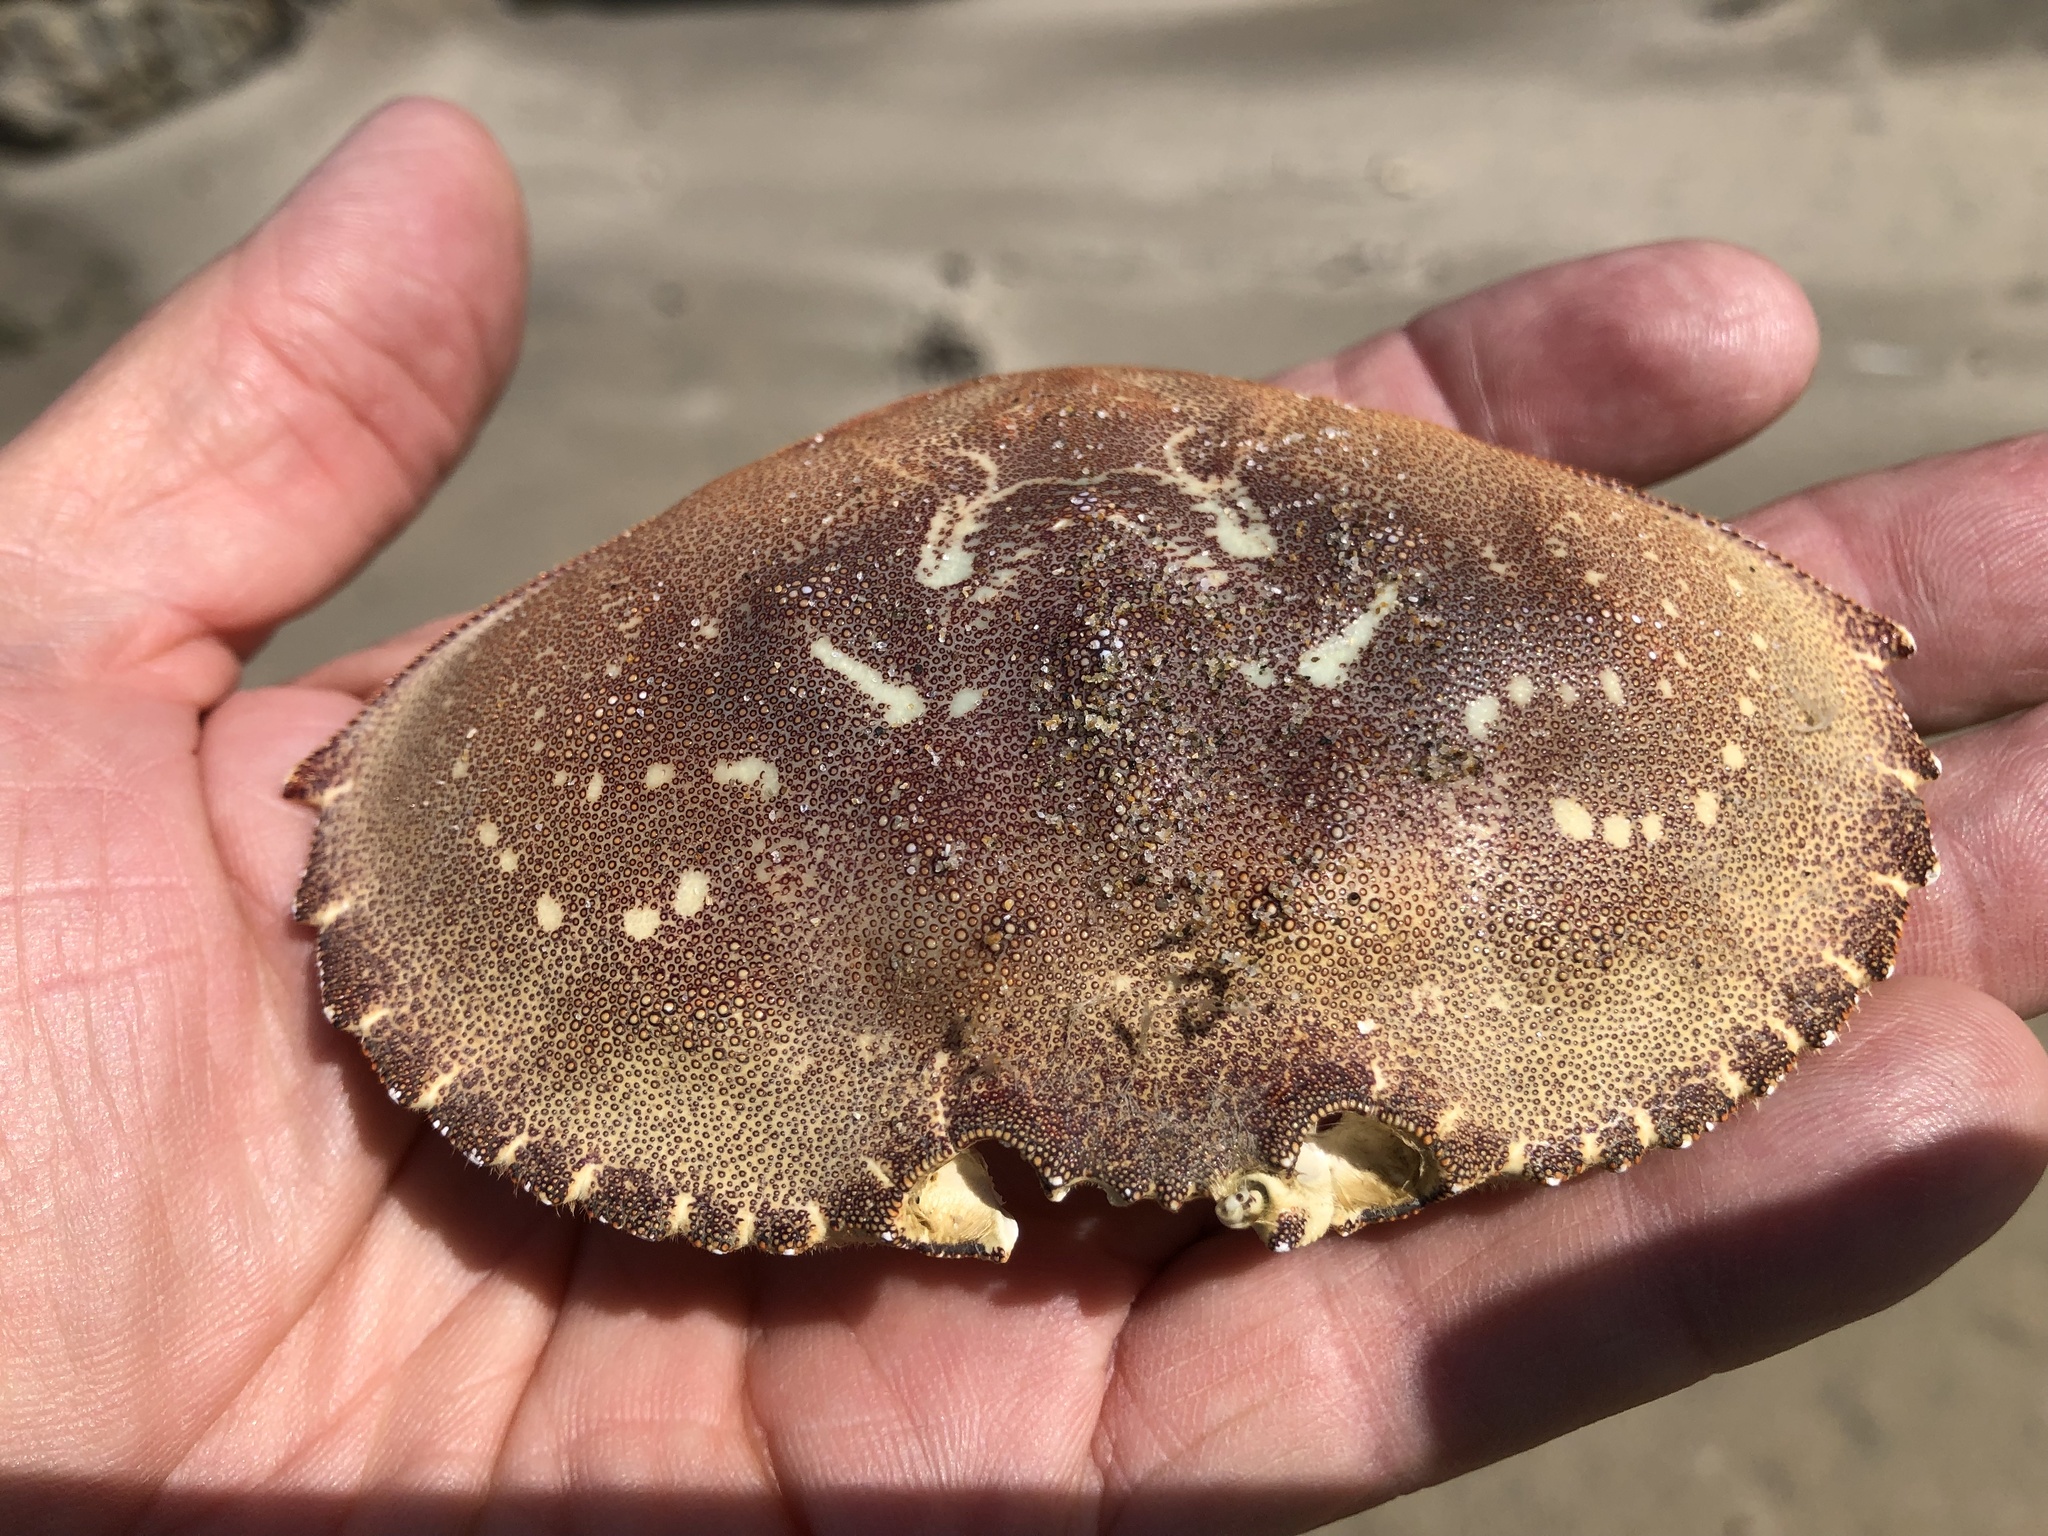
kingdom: Animalia
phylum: Arthropoda
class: Malacostraca
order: Decapoda
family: Cancridae
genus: Metacarcinus
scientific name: Metacarcinus magister
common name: Californian crab
